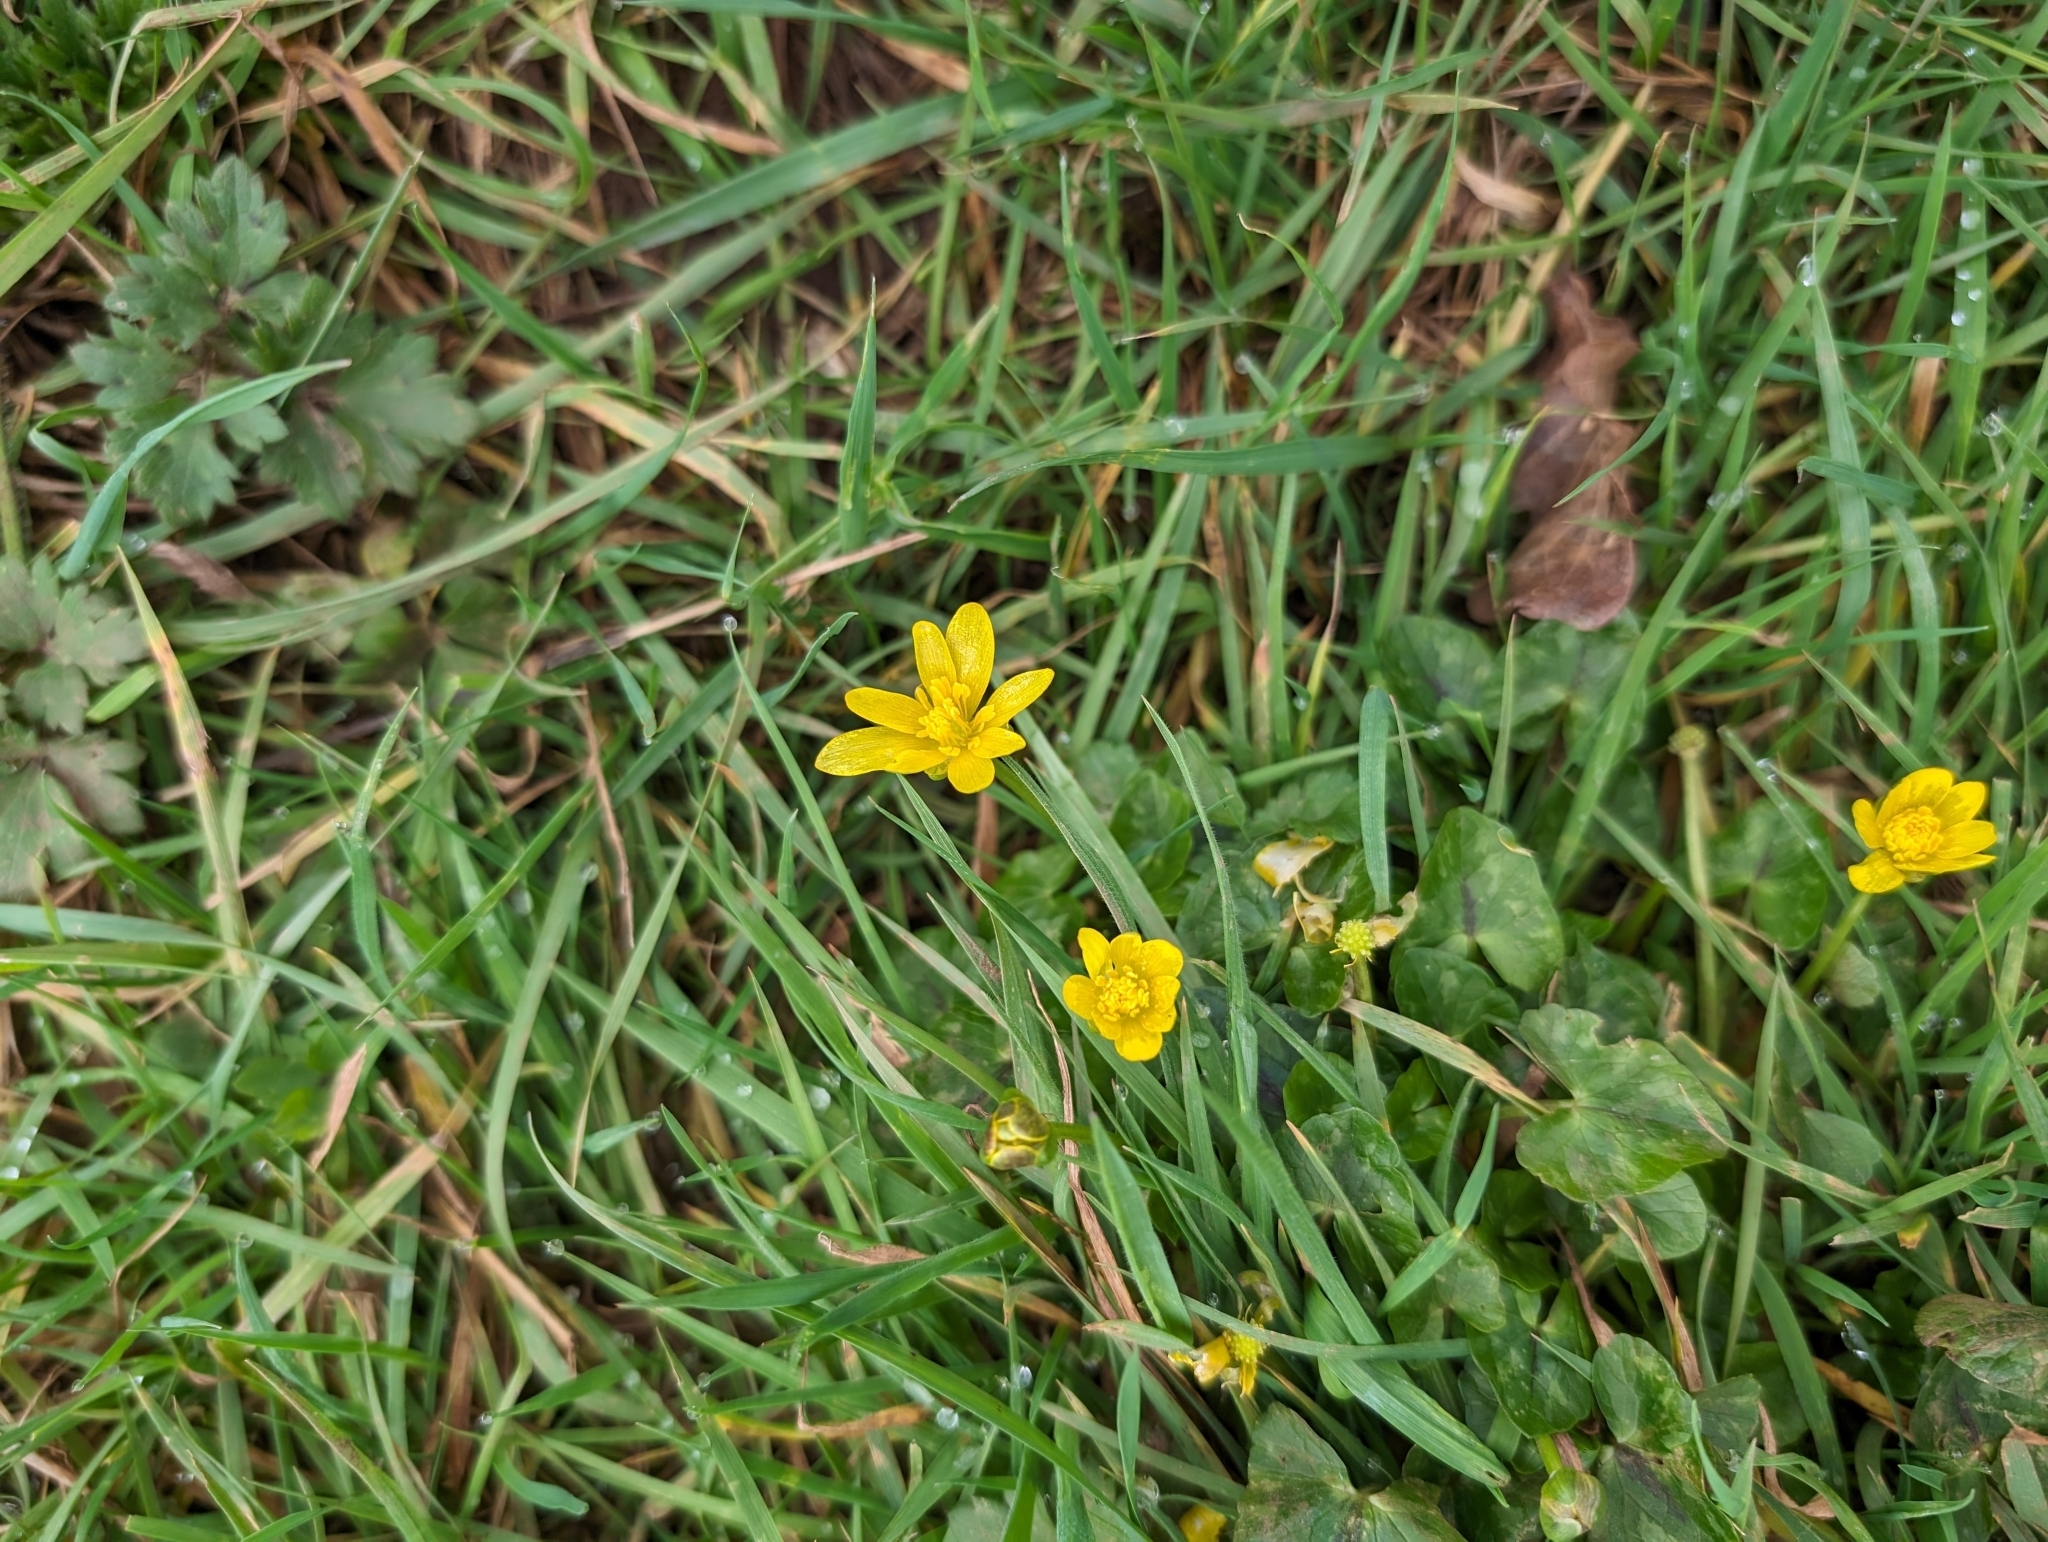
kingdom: Plantae
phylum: Tracheophyta
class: Magnoliopsida
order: Ranunculales
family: Ranunculaceae
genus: Ficaria
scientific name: Ficaria verna
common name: Lesser celandine
